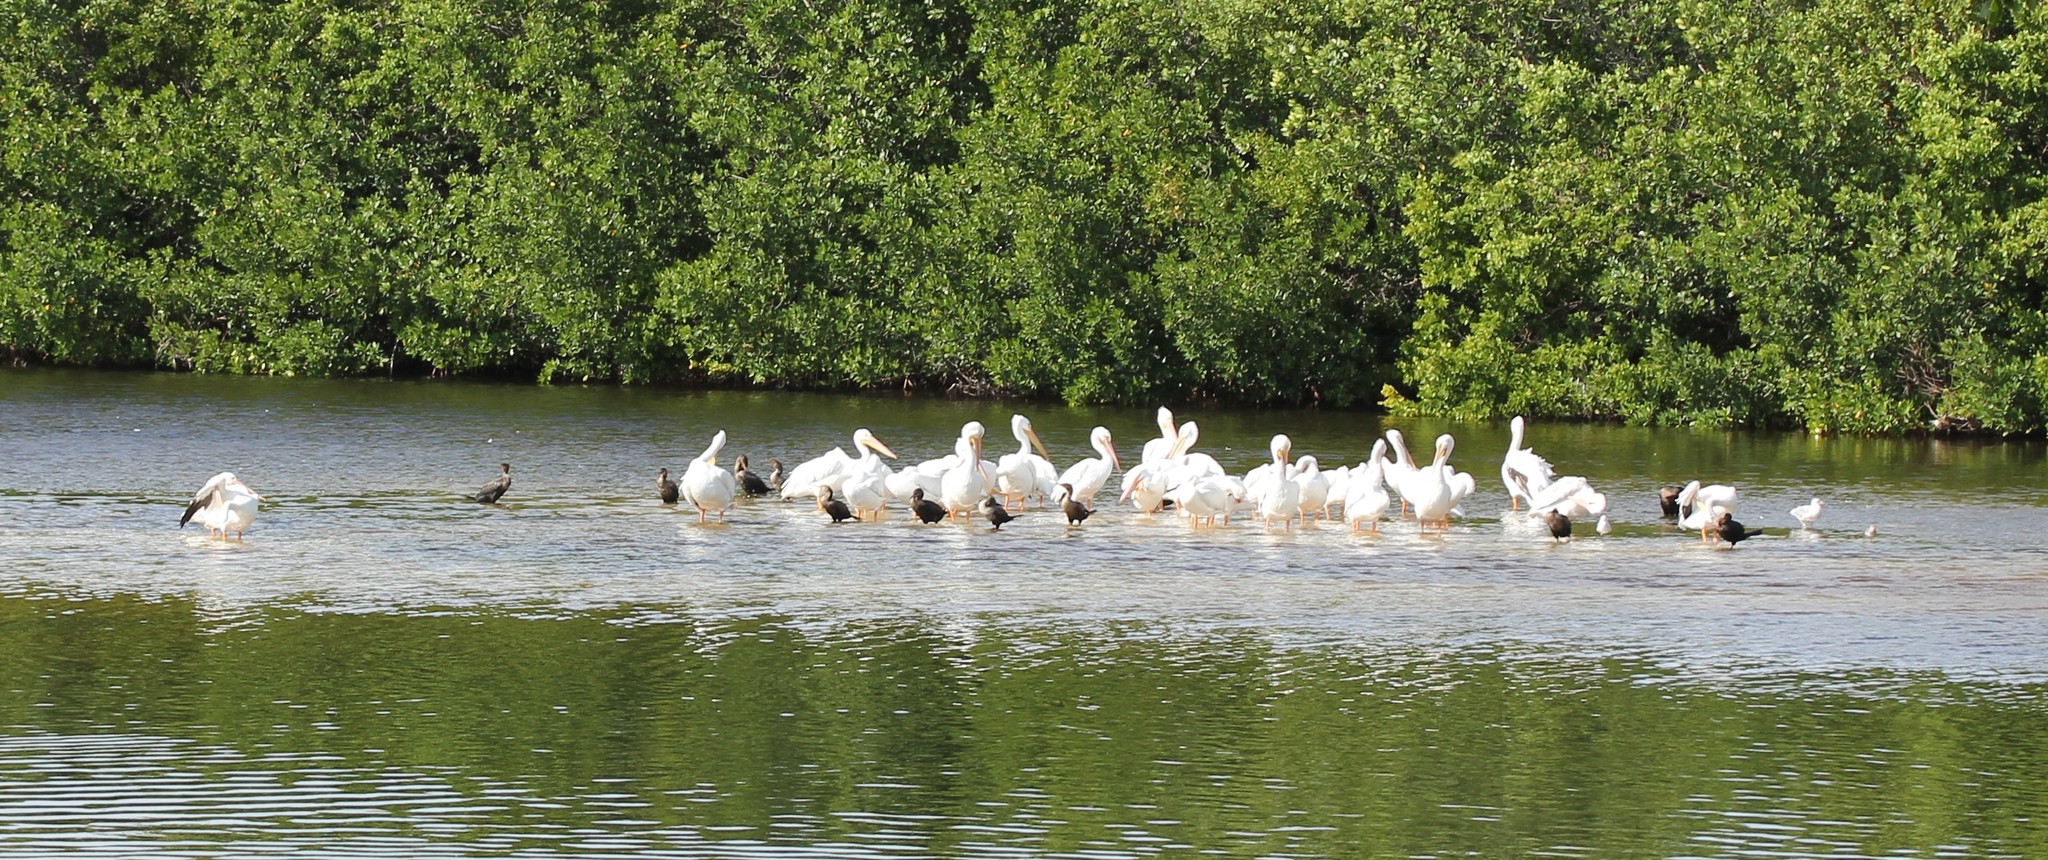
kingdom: Animalia
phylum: Chordata
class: Aves
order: Pelecaniformes
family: Pelecanidae
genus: Pelecanus
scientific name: Pelecanus erythrorhynchos
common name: American white pelican
